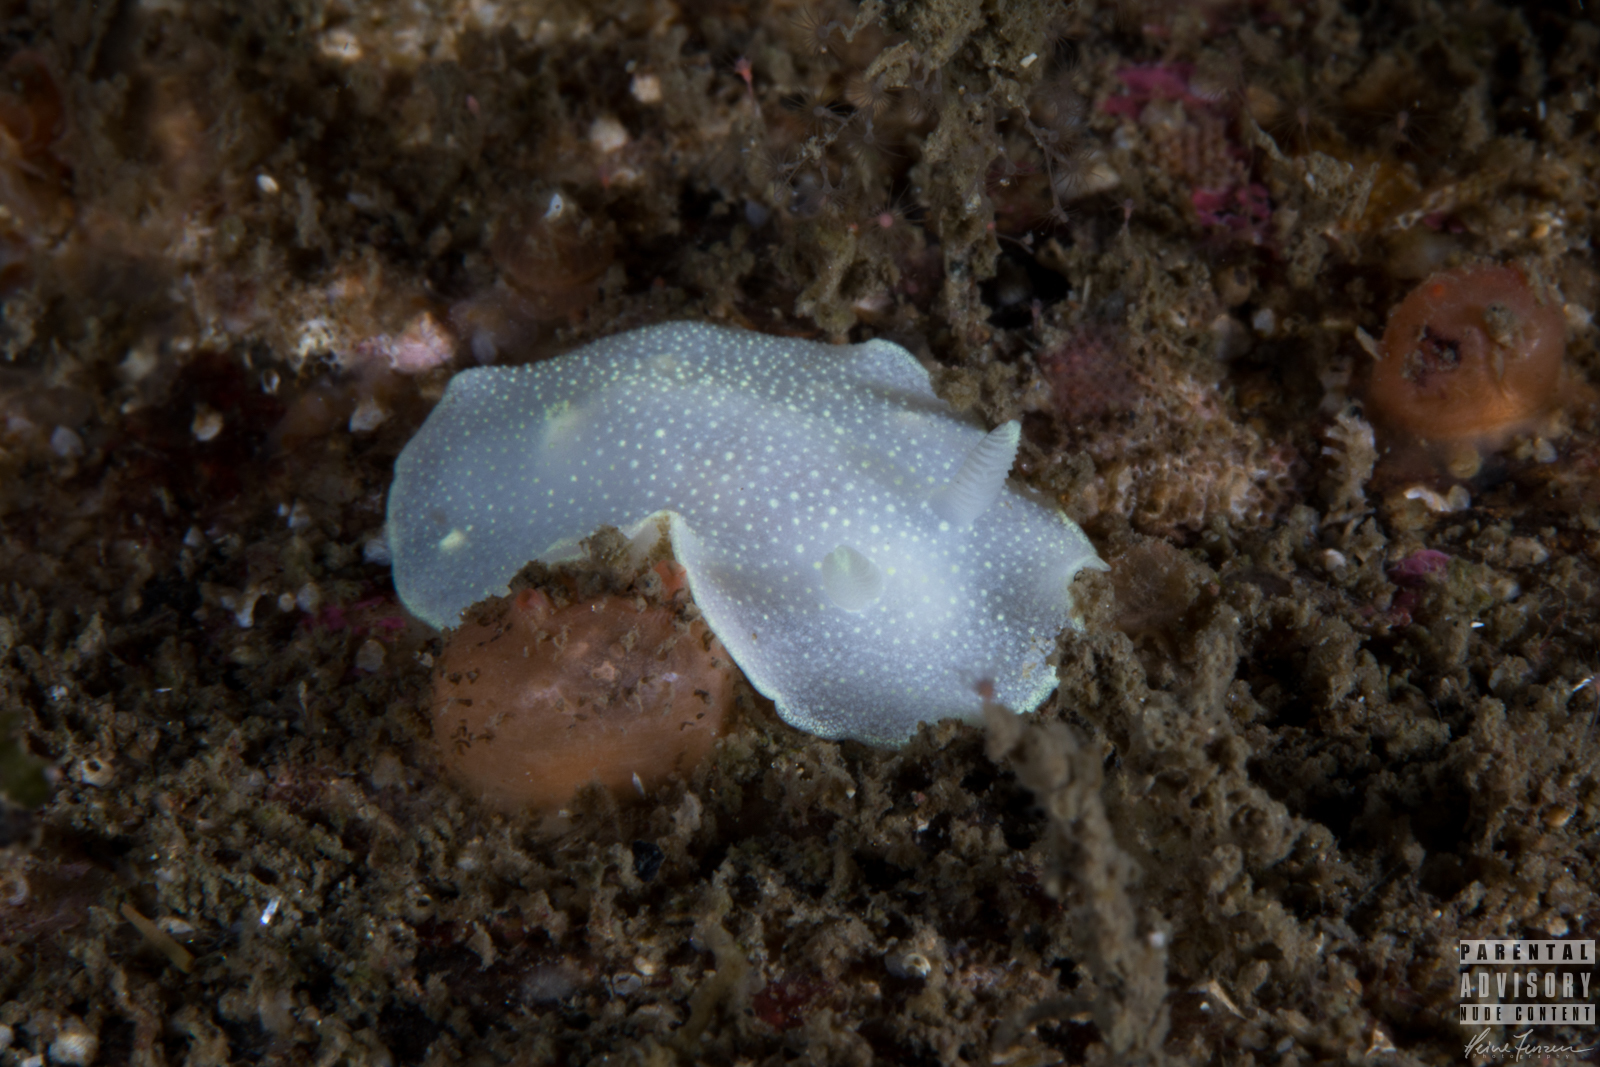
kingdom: Animalia
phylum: Mollusca
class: Gastropoda
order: Nudibranchia
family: Cadlinidae
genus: Cadlina
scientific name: Cadlina laevis
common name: White atlantic cadlina
